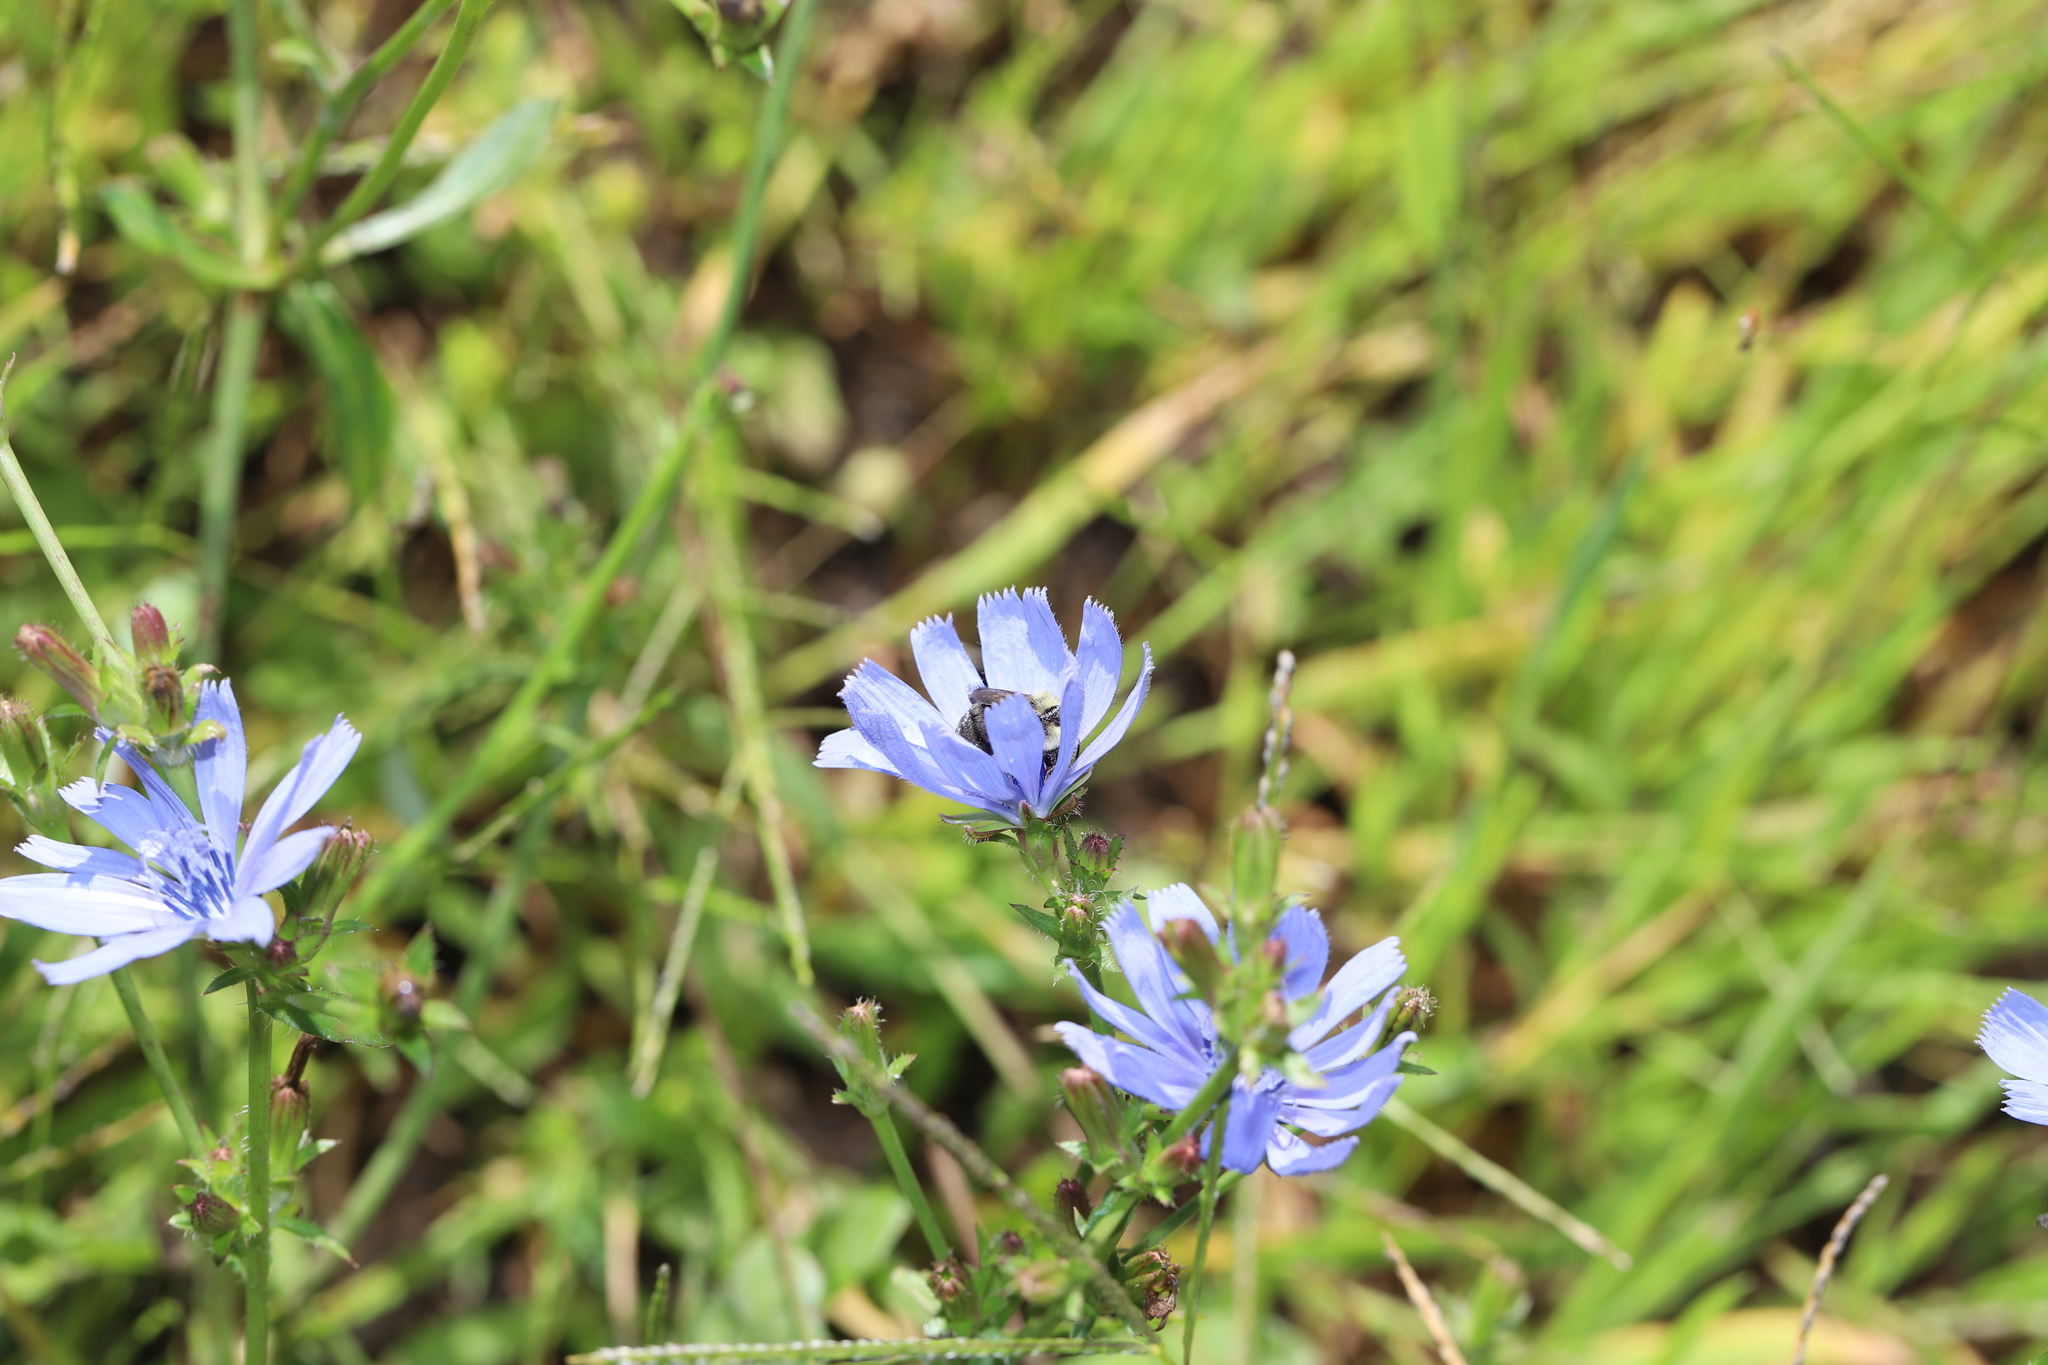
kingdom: Plantae
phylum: Tracheophyta
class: Magnoliopsida
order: Asterales
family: Asteraceae
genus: Cichorium
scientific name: Cichorium intybus
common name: Chicory
